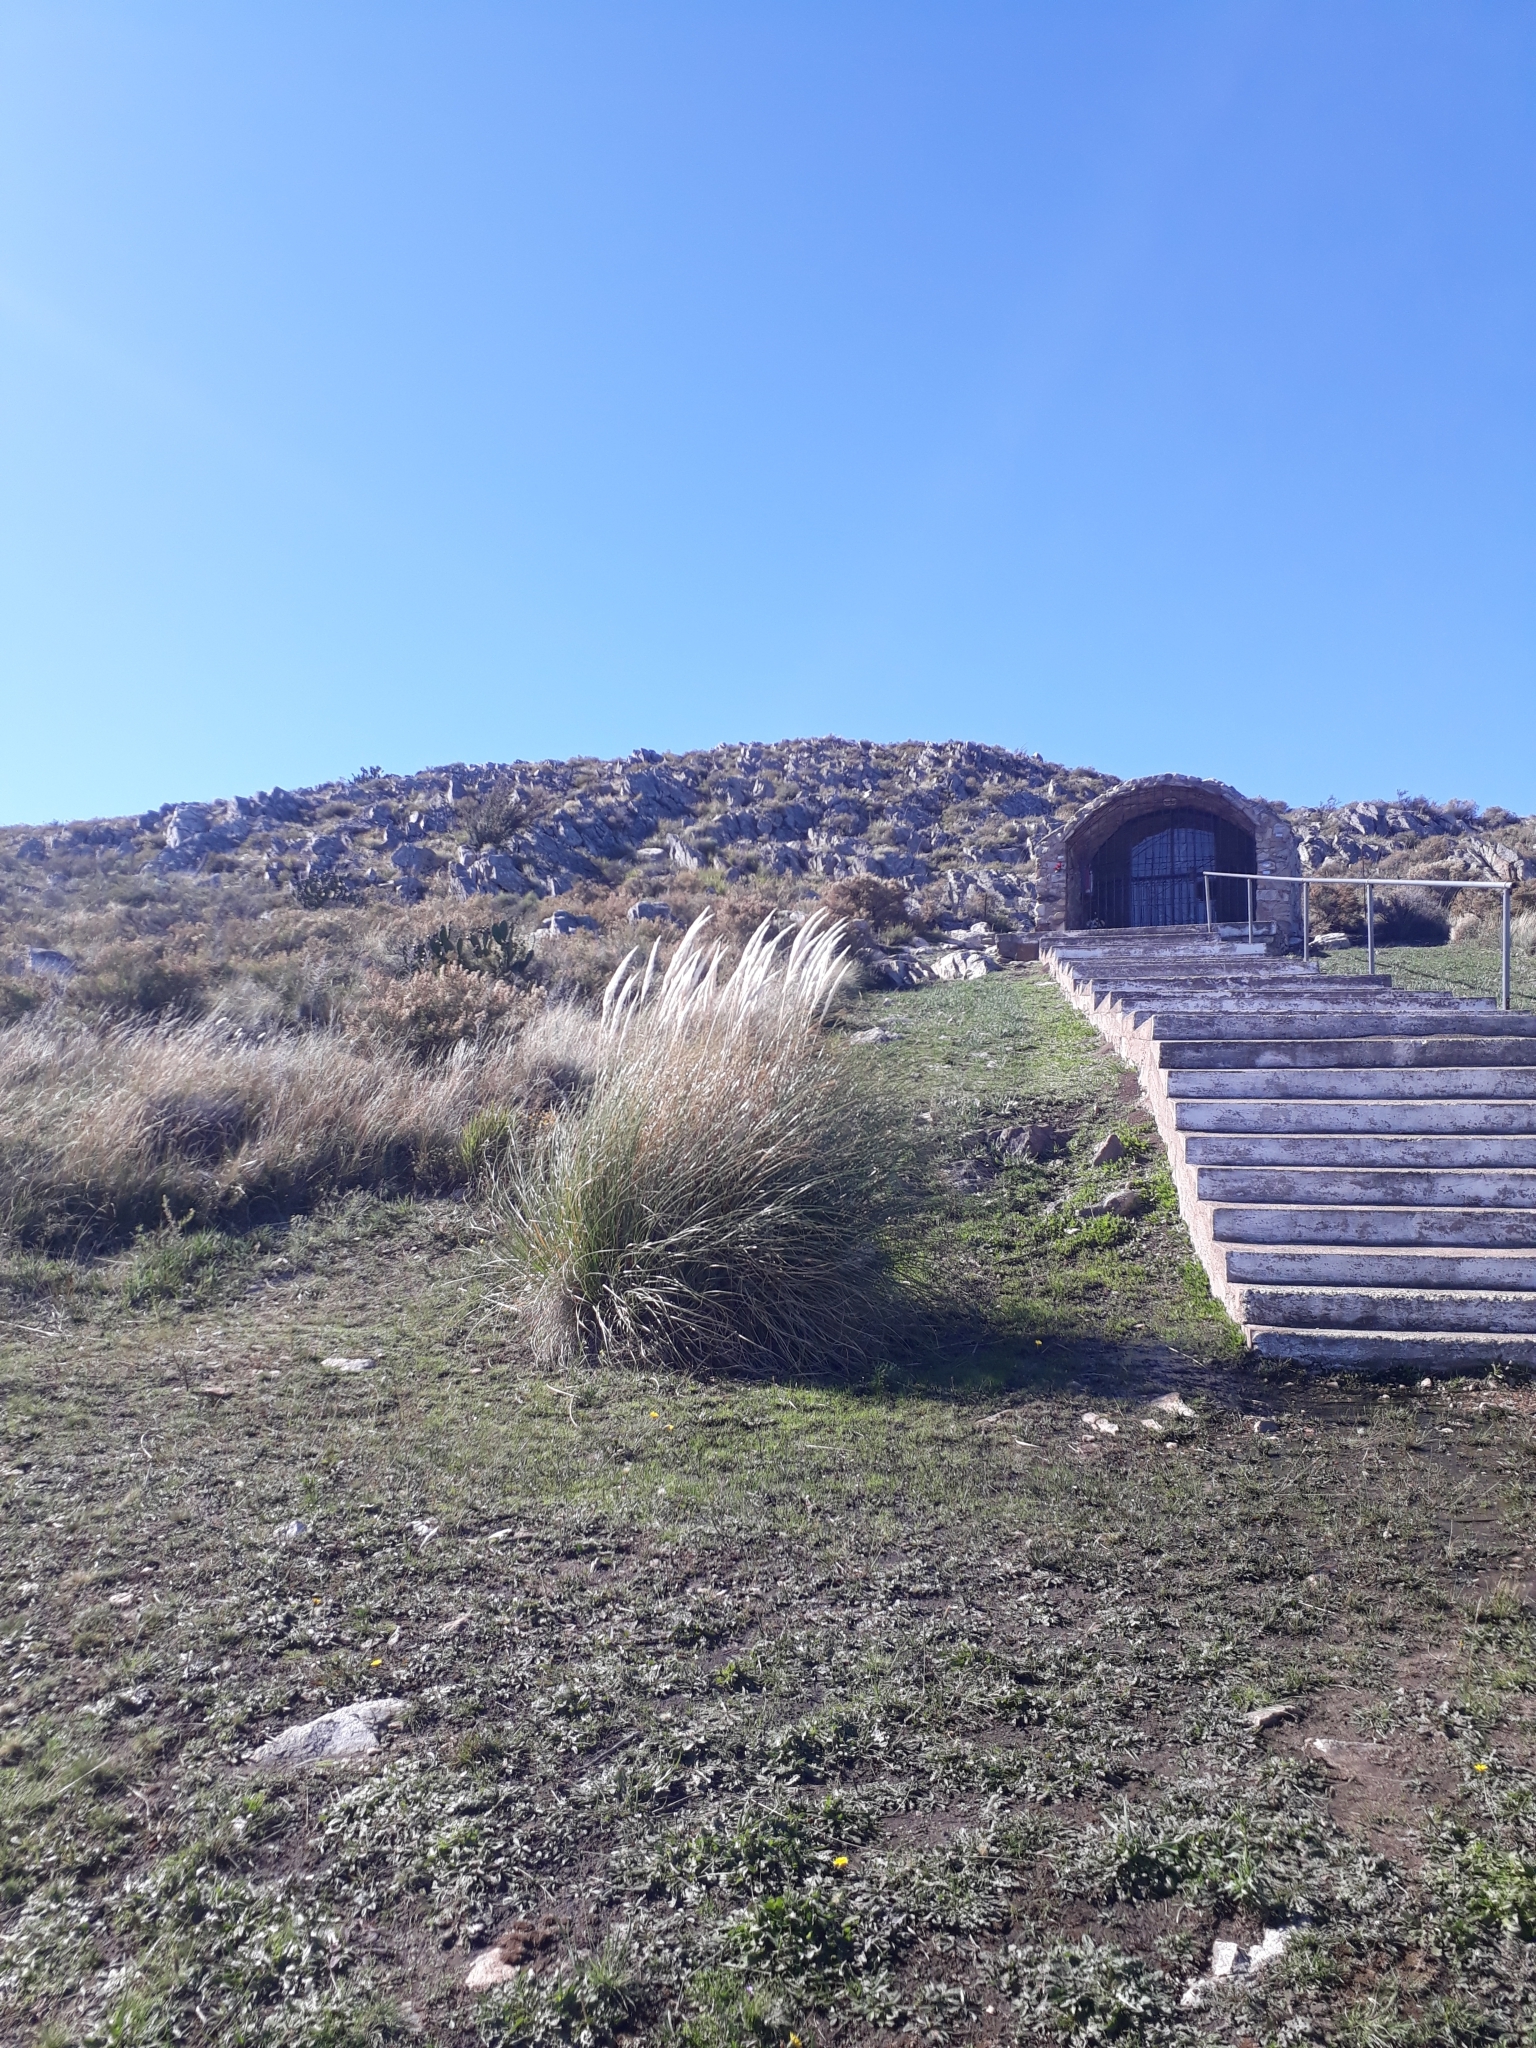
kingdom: Plantae
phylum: Tracheophyta
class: Liliopsida
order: Poales
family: Poaceae
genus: Cortaderia
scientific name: Cortaderia selloana
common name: Uruguayan pampas grass
